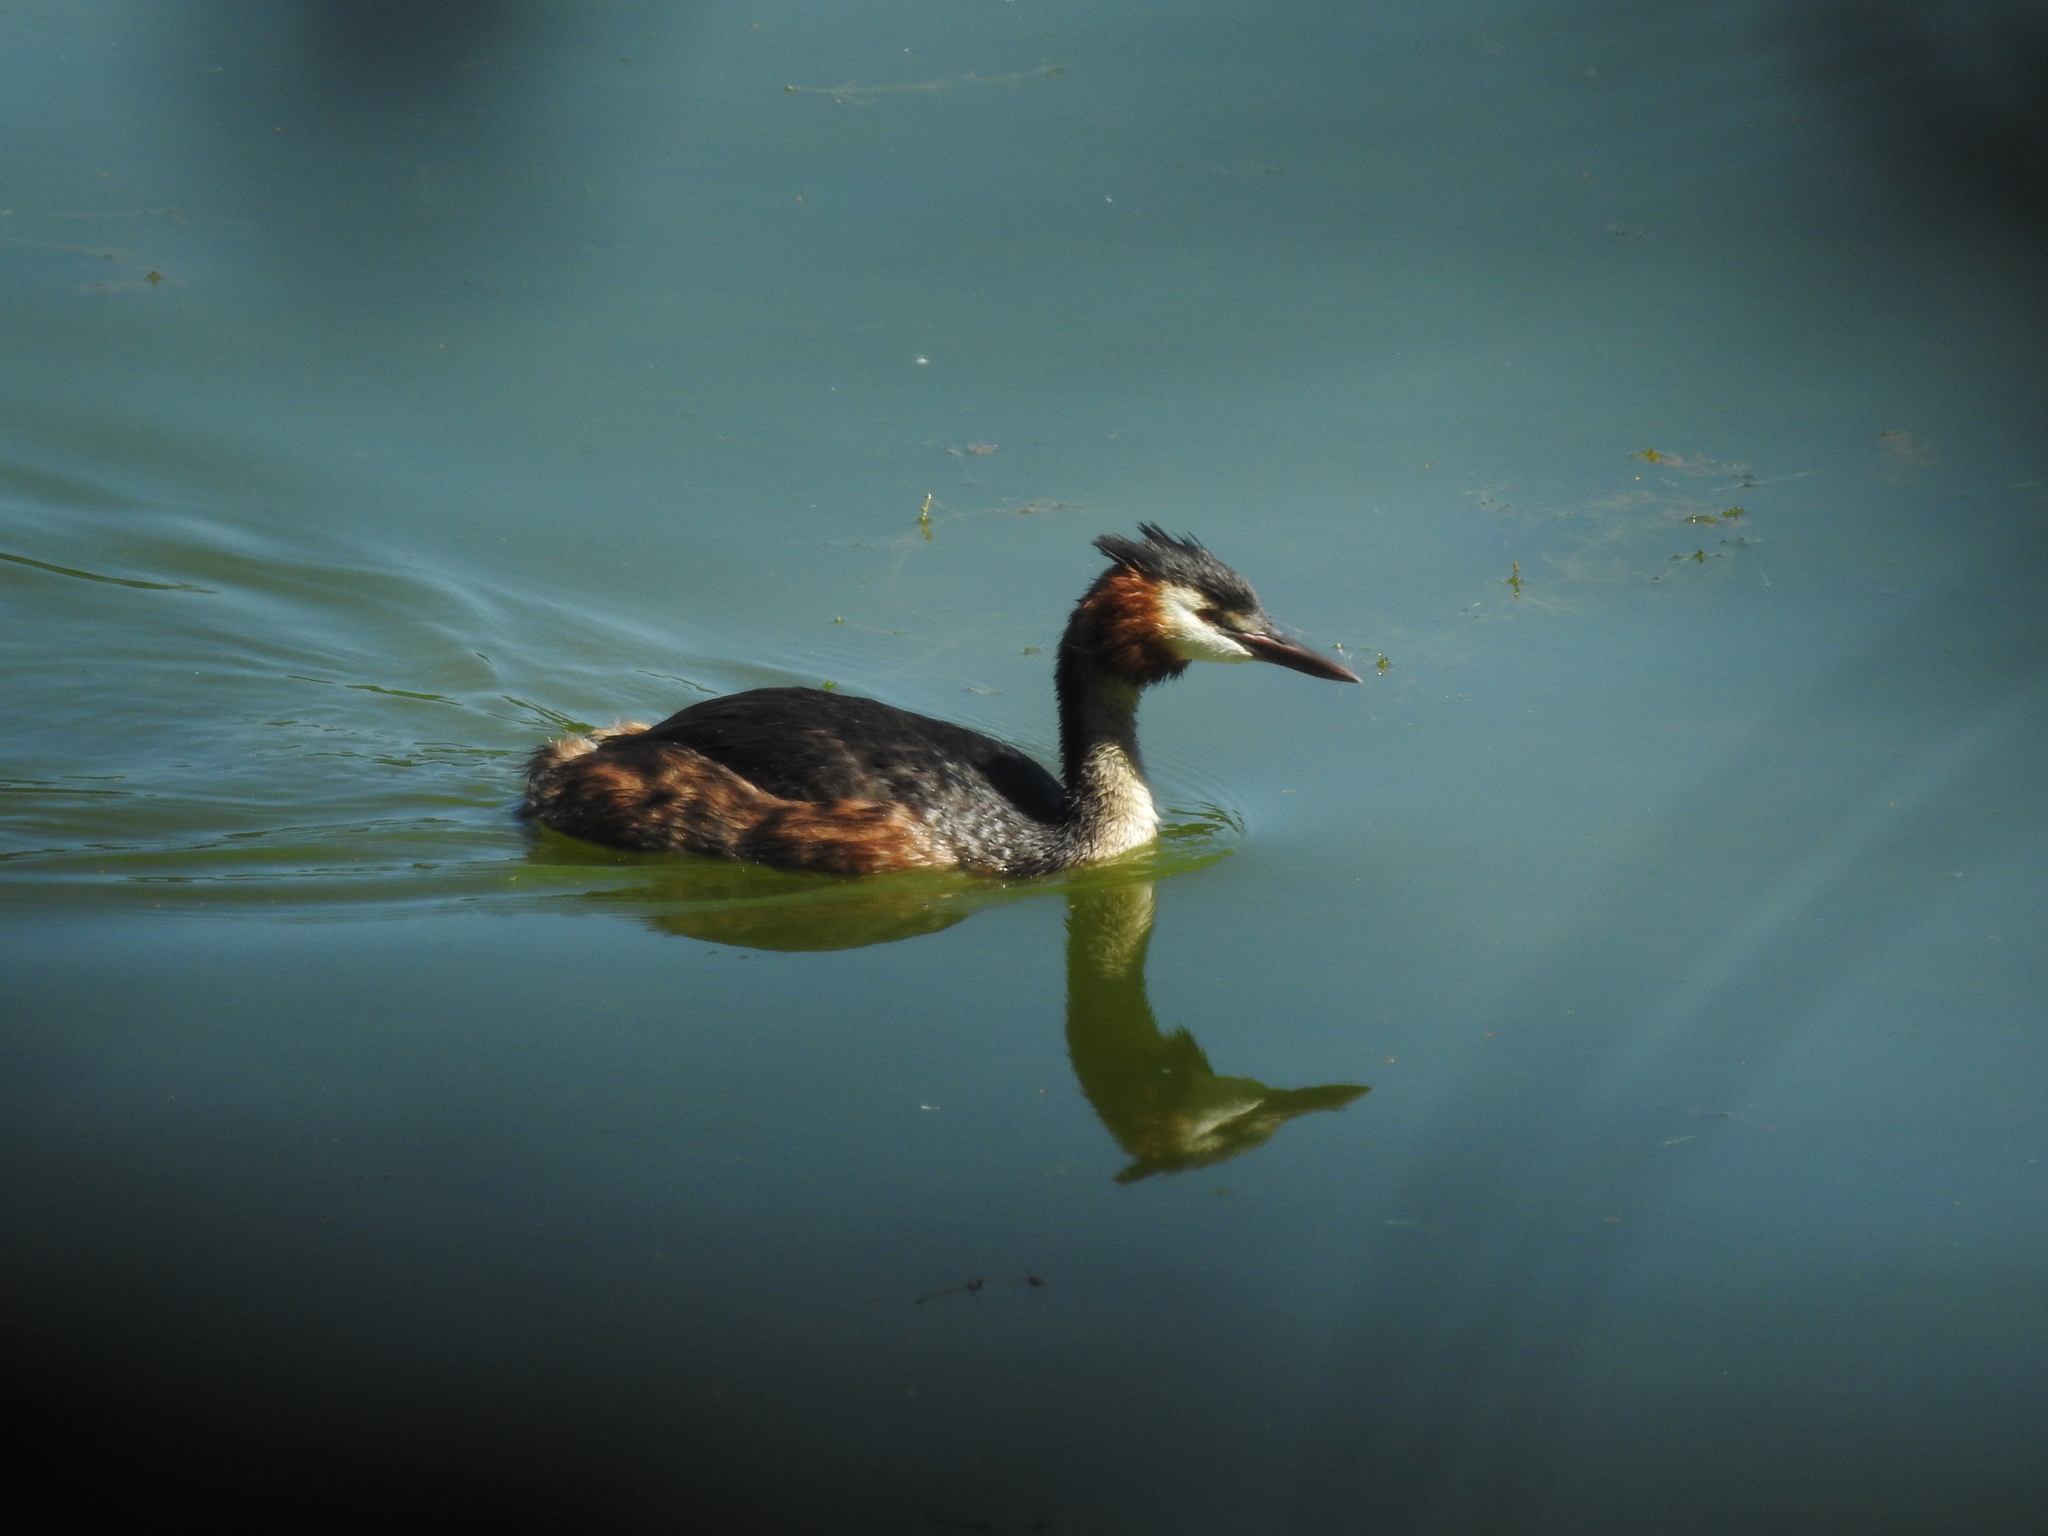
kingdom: Animalia
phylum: Chordata
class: Aves
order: Podicipediformes
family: Podicipedidae
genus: Podiceps
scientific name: Podiceps cristatus
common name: Great crested grebe
